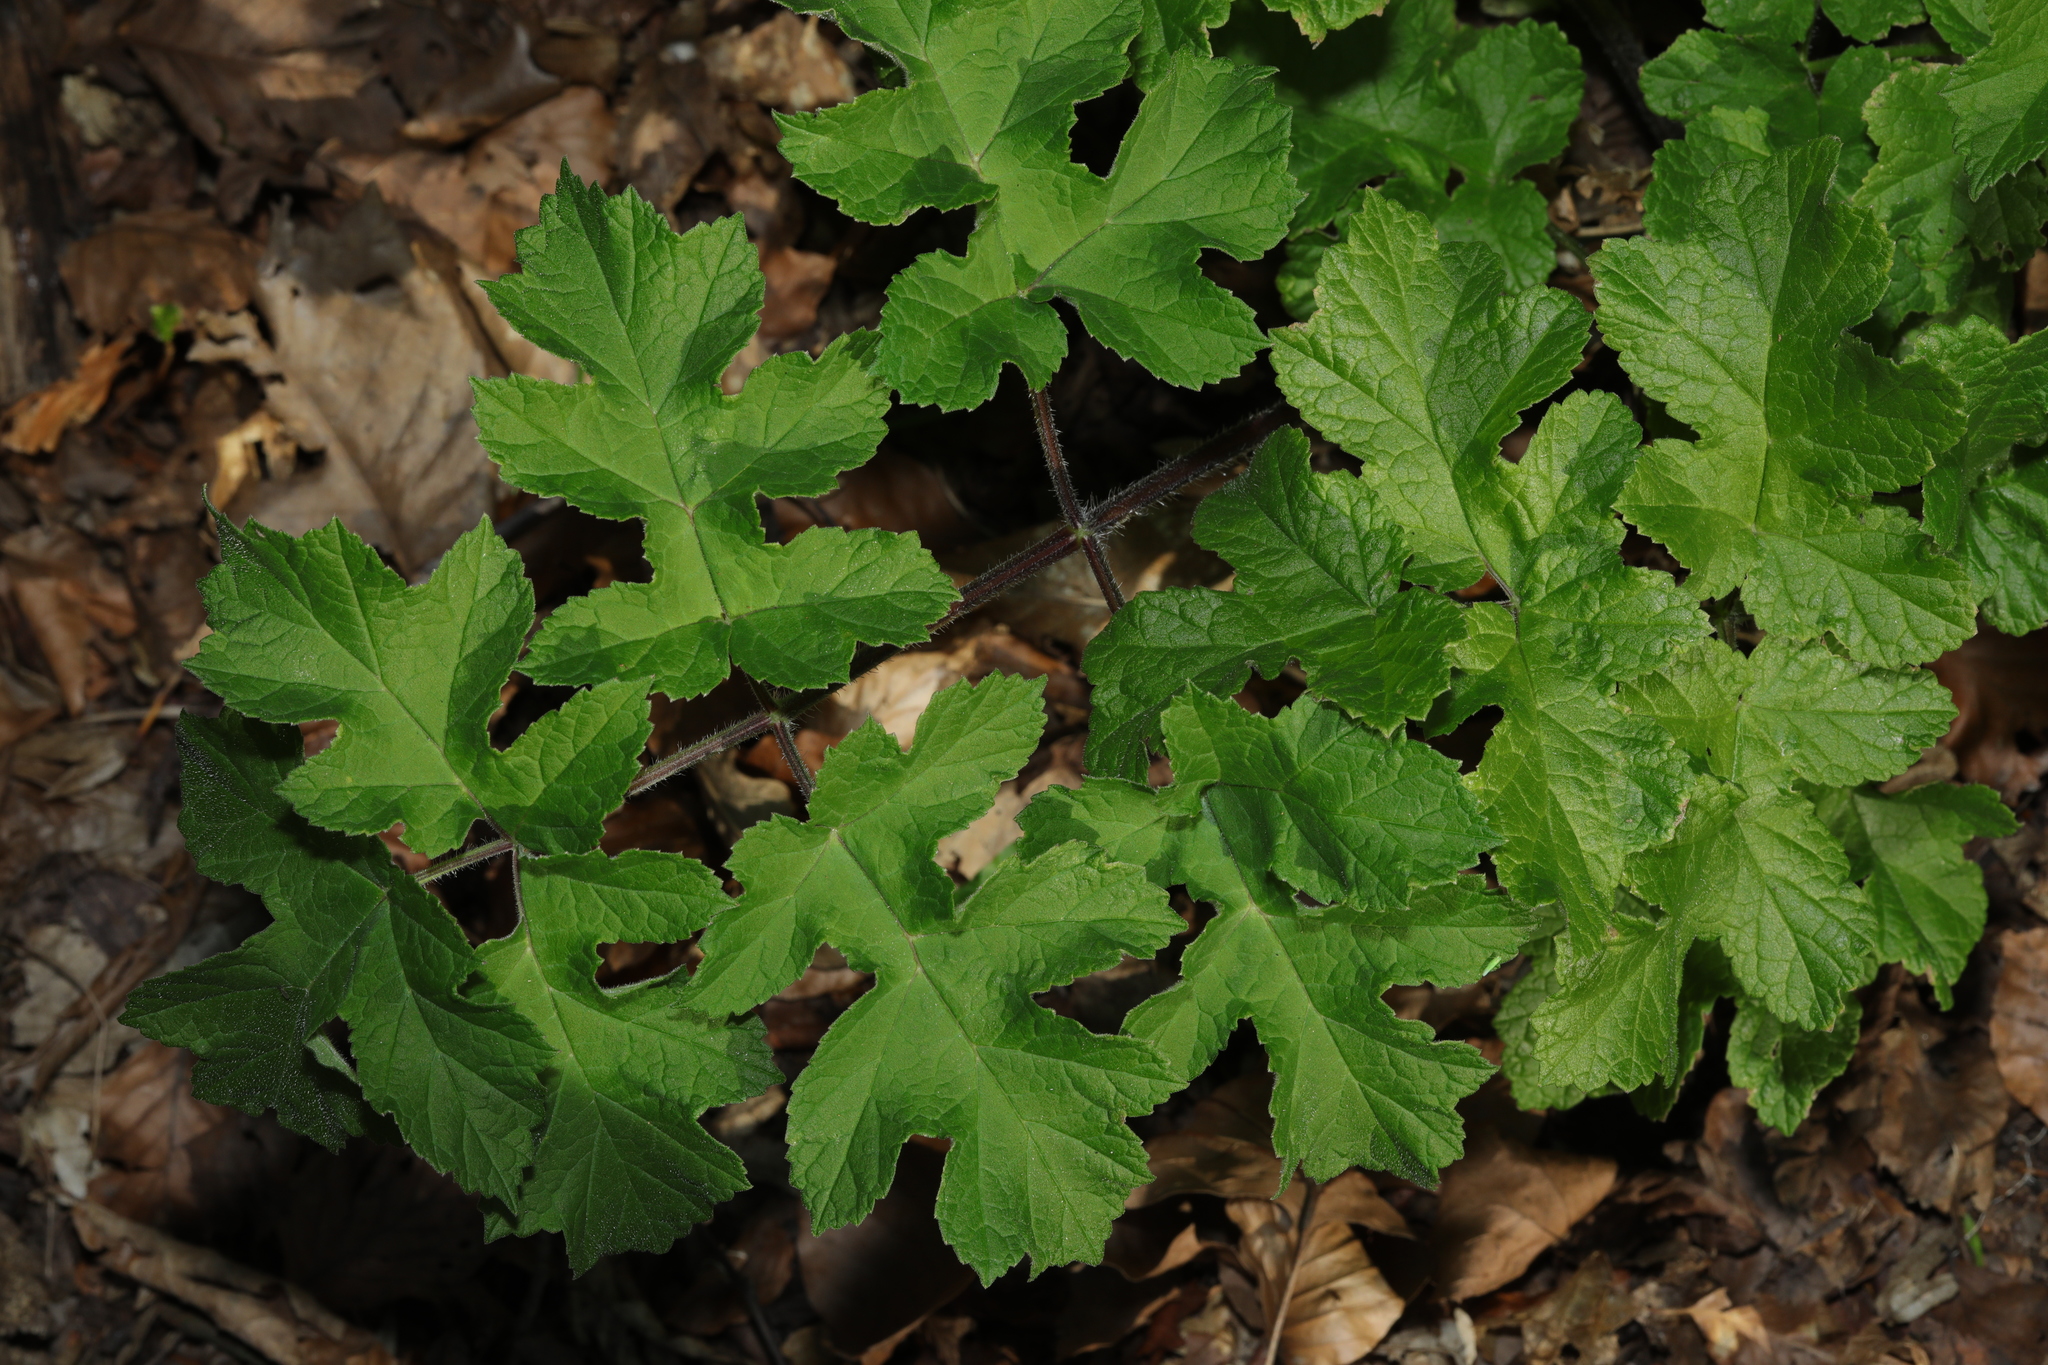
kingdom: Plantae
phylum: Tracheophyta
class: Magnoliopsida
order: Apiales
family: Apiaceae
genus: Heracleum
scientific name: Heracleum sphondylium
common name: Hogweed
